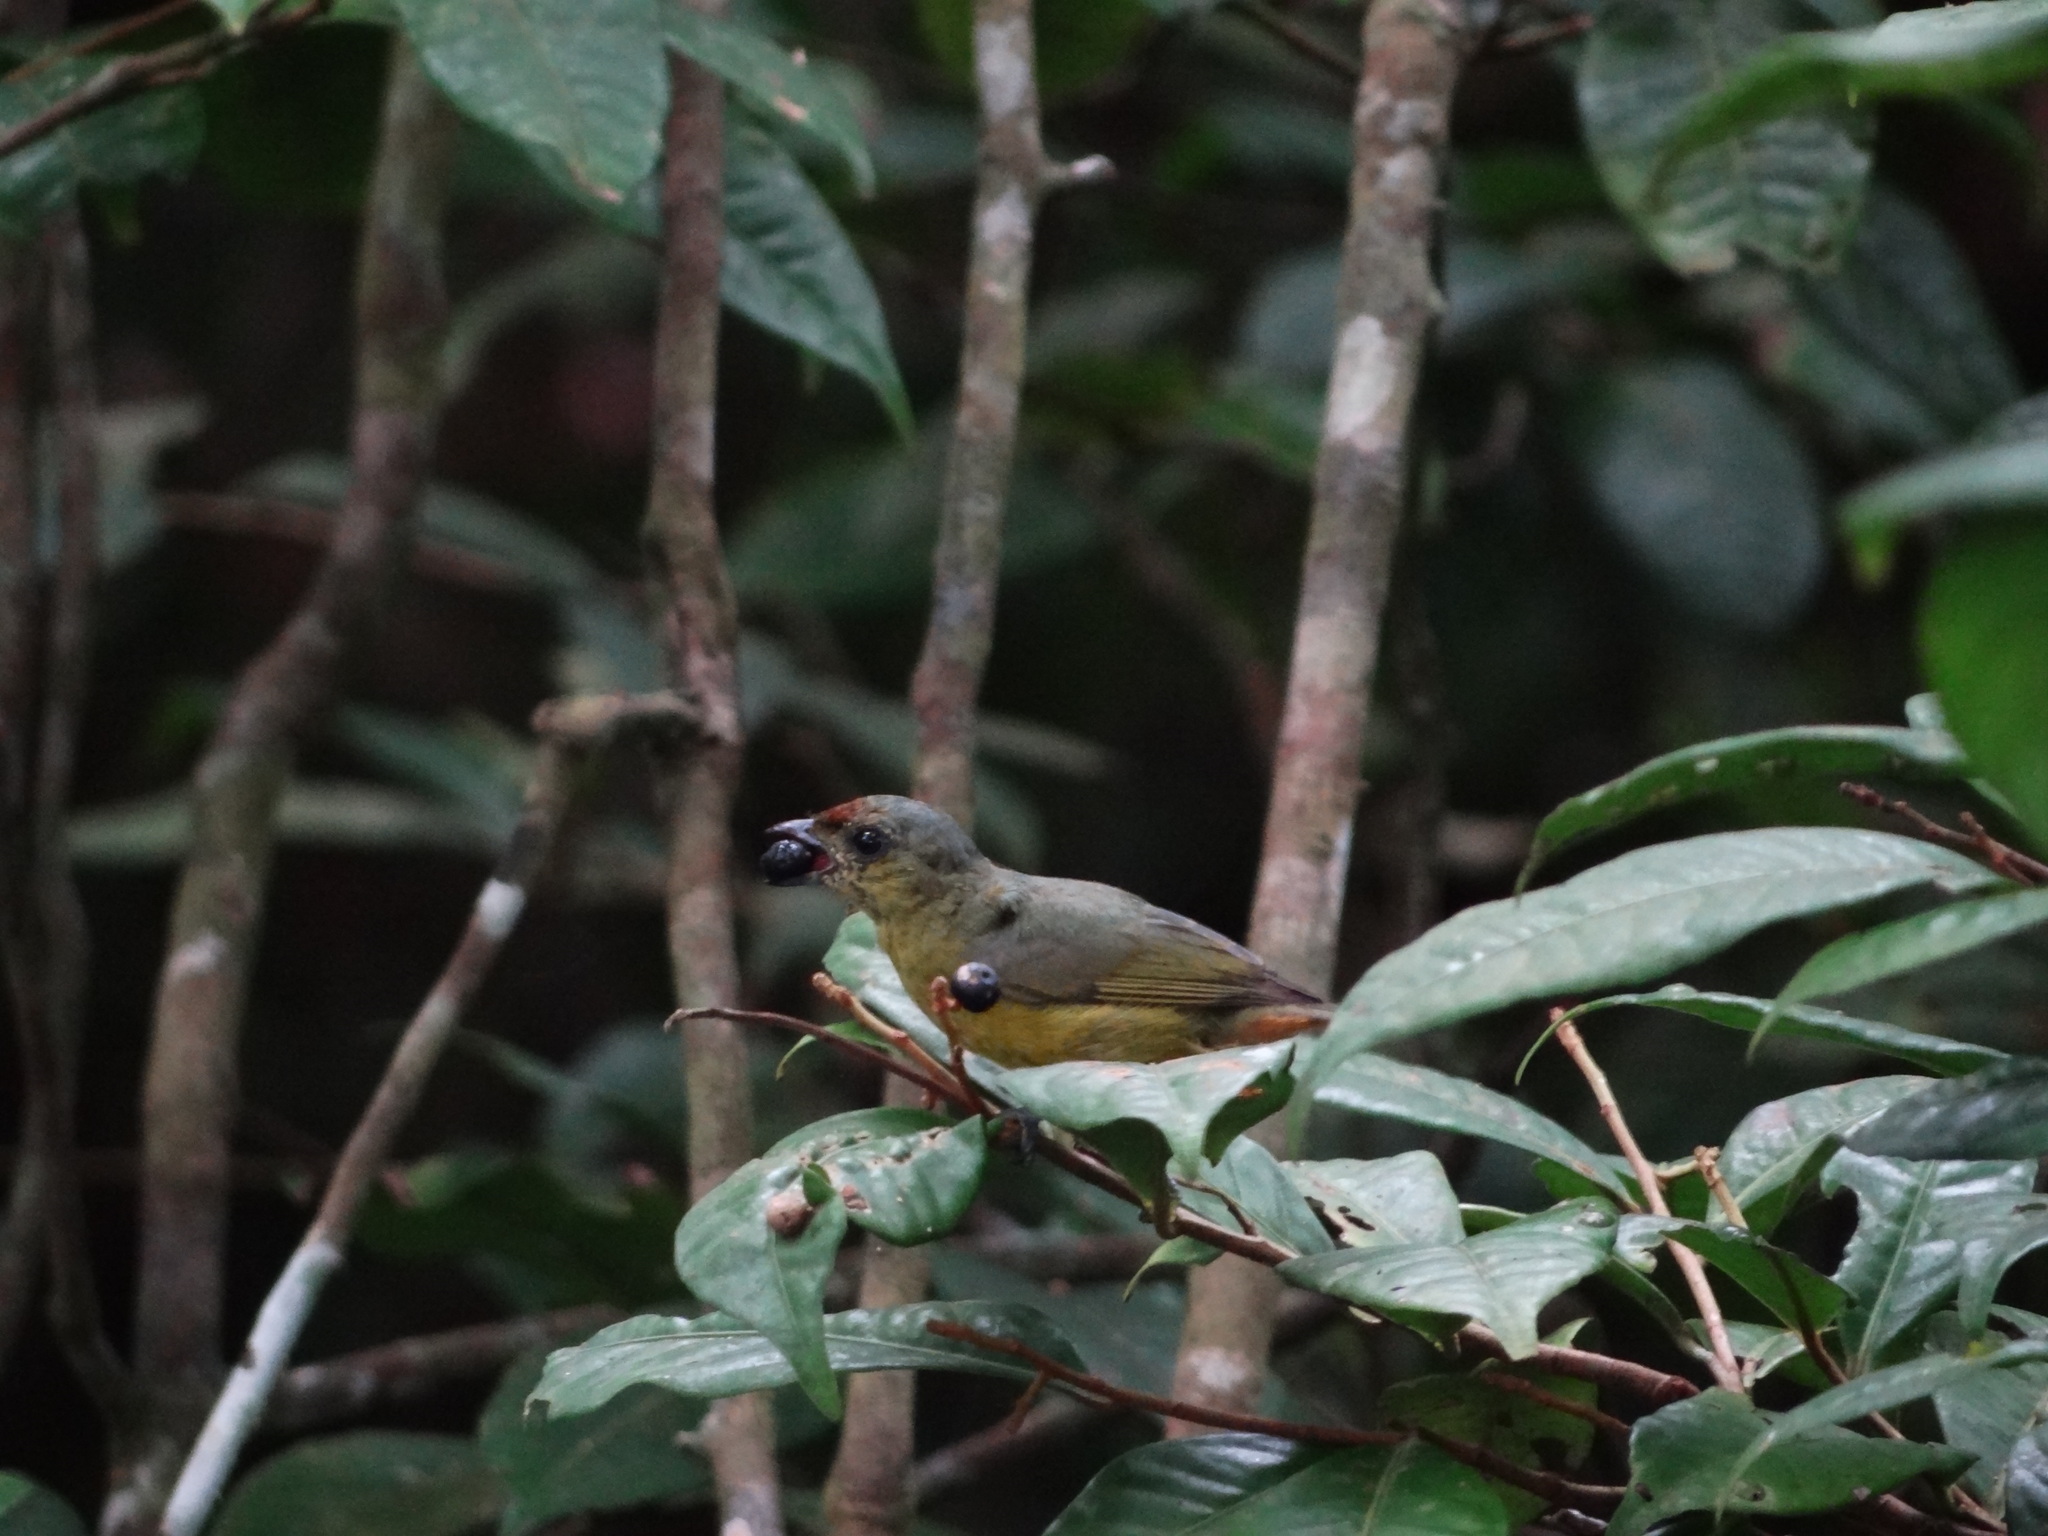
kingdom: Animalia
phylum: Chordata
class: Aves
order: Passeriformes
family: Fringillidae
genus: Euphonia
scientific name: Euphonia gouldi
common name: Olive-backed euphonia
